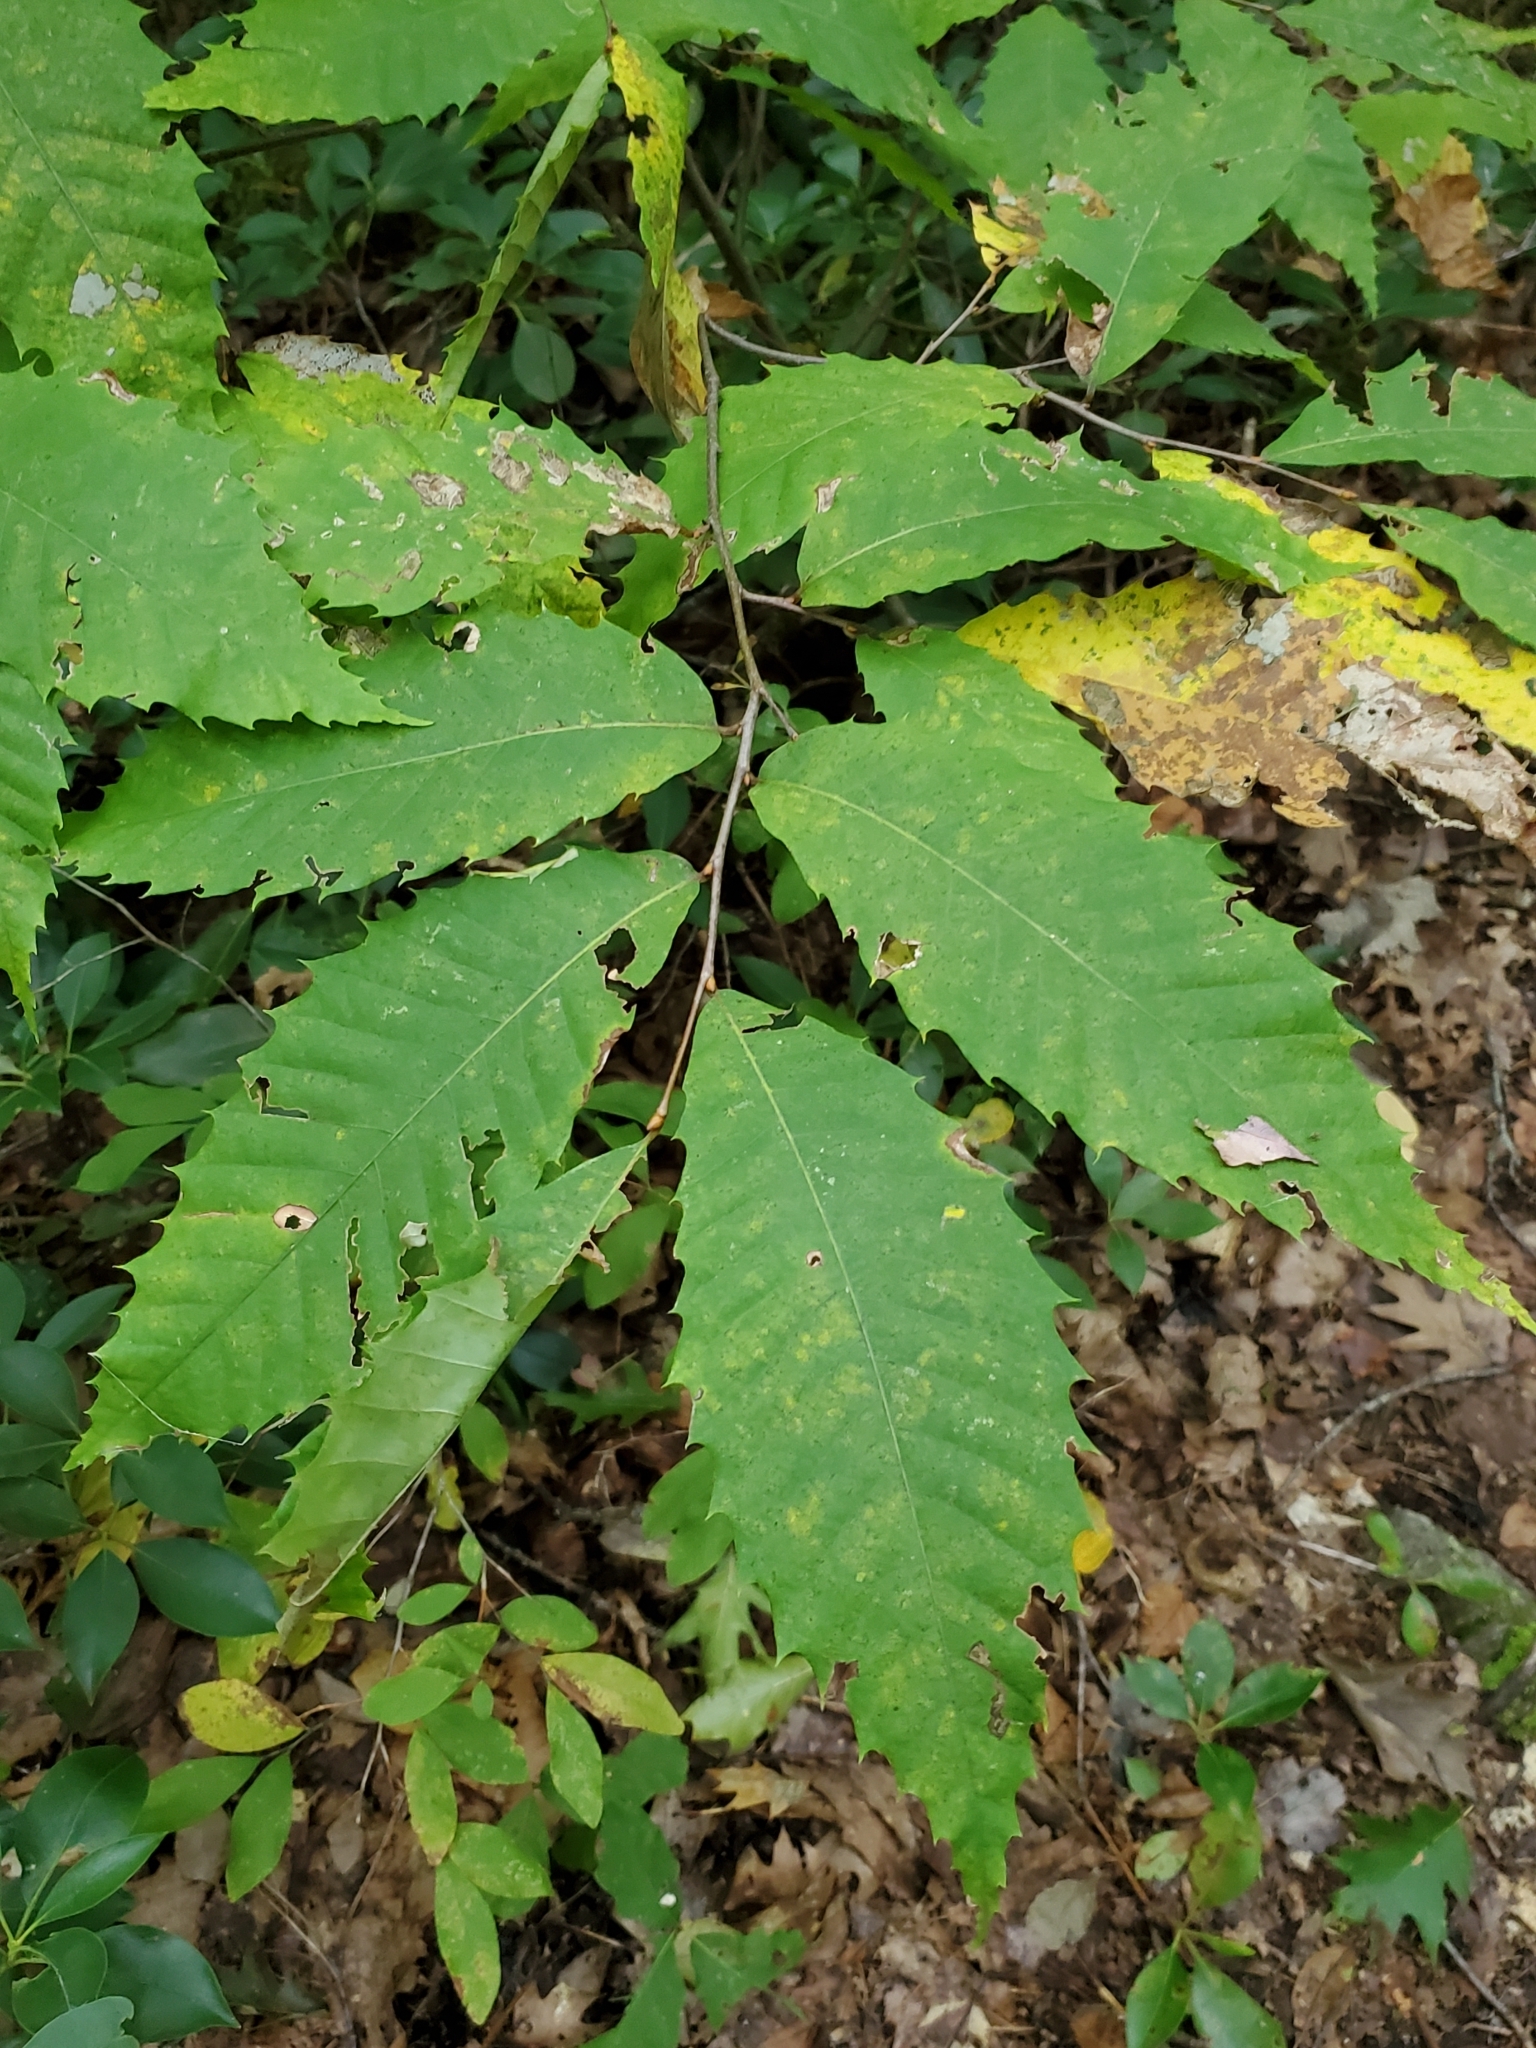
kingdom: Plantae
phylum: Tracheophyta
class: Magnoliopsida
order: Fagales
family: Fagaceae
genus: Castanea
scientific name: Castanea dentata
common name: American chestnut
